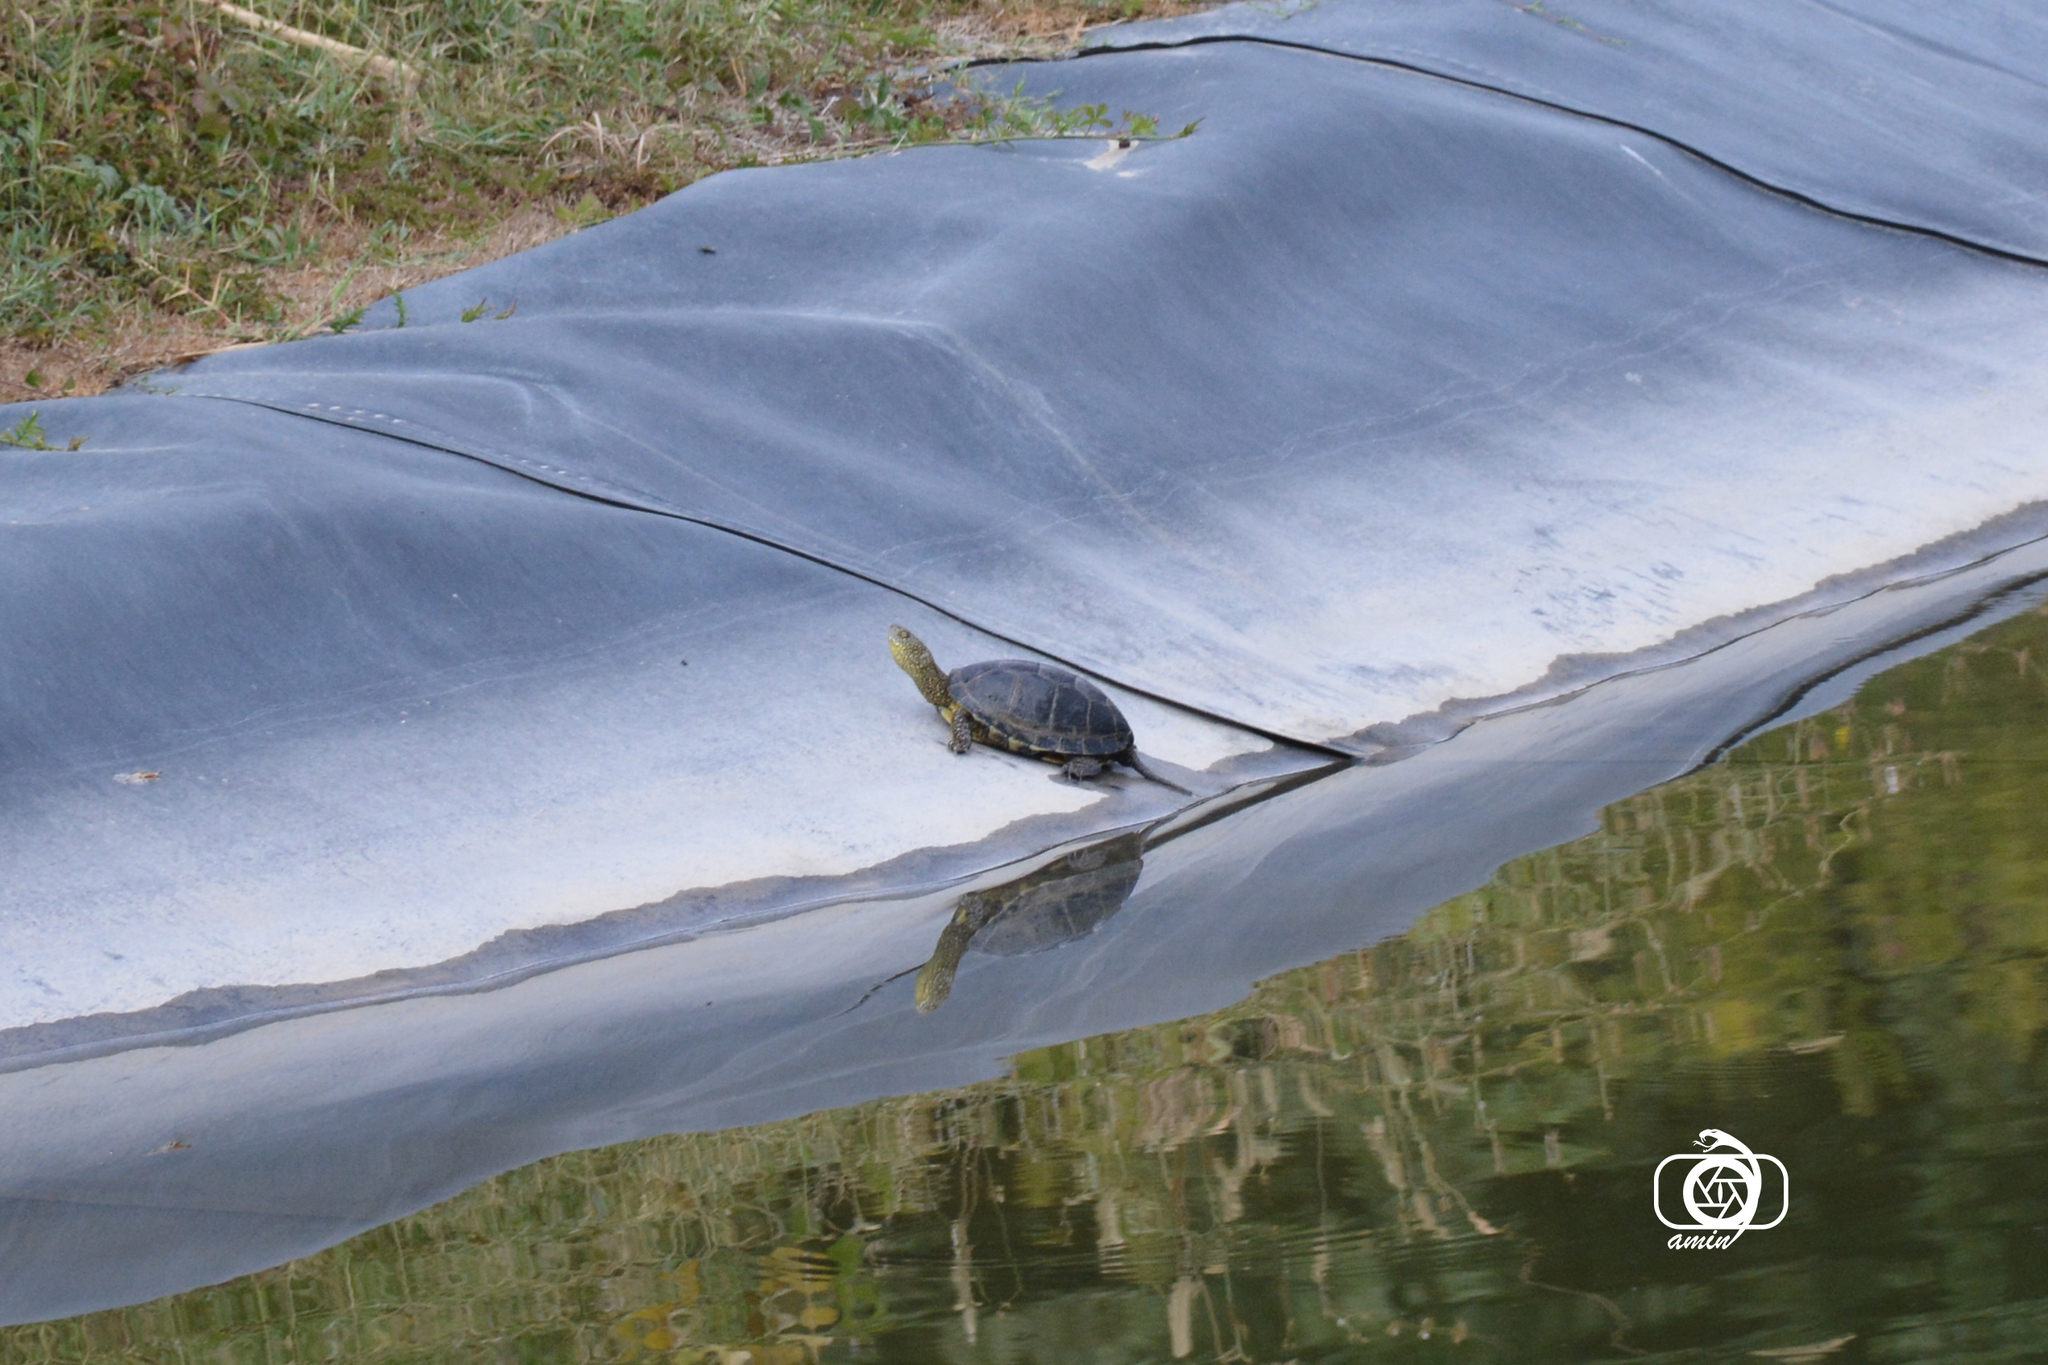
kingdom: Animalia
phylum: Chordata
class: Testudines
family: Emydidae
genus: Emys
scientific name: Emys orbicularis
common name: European pond turtle
